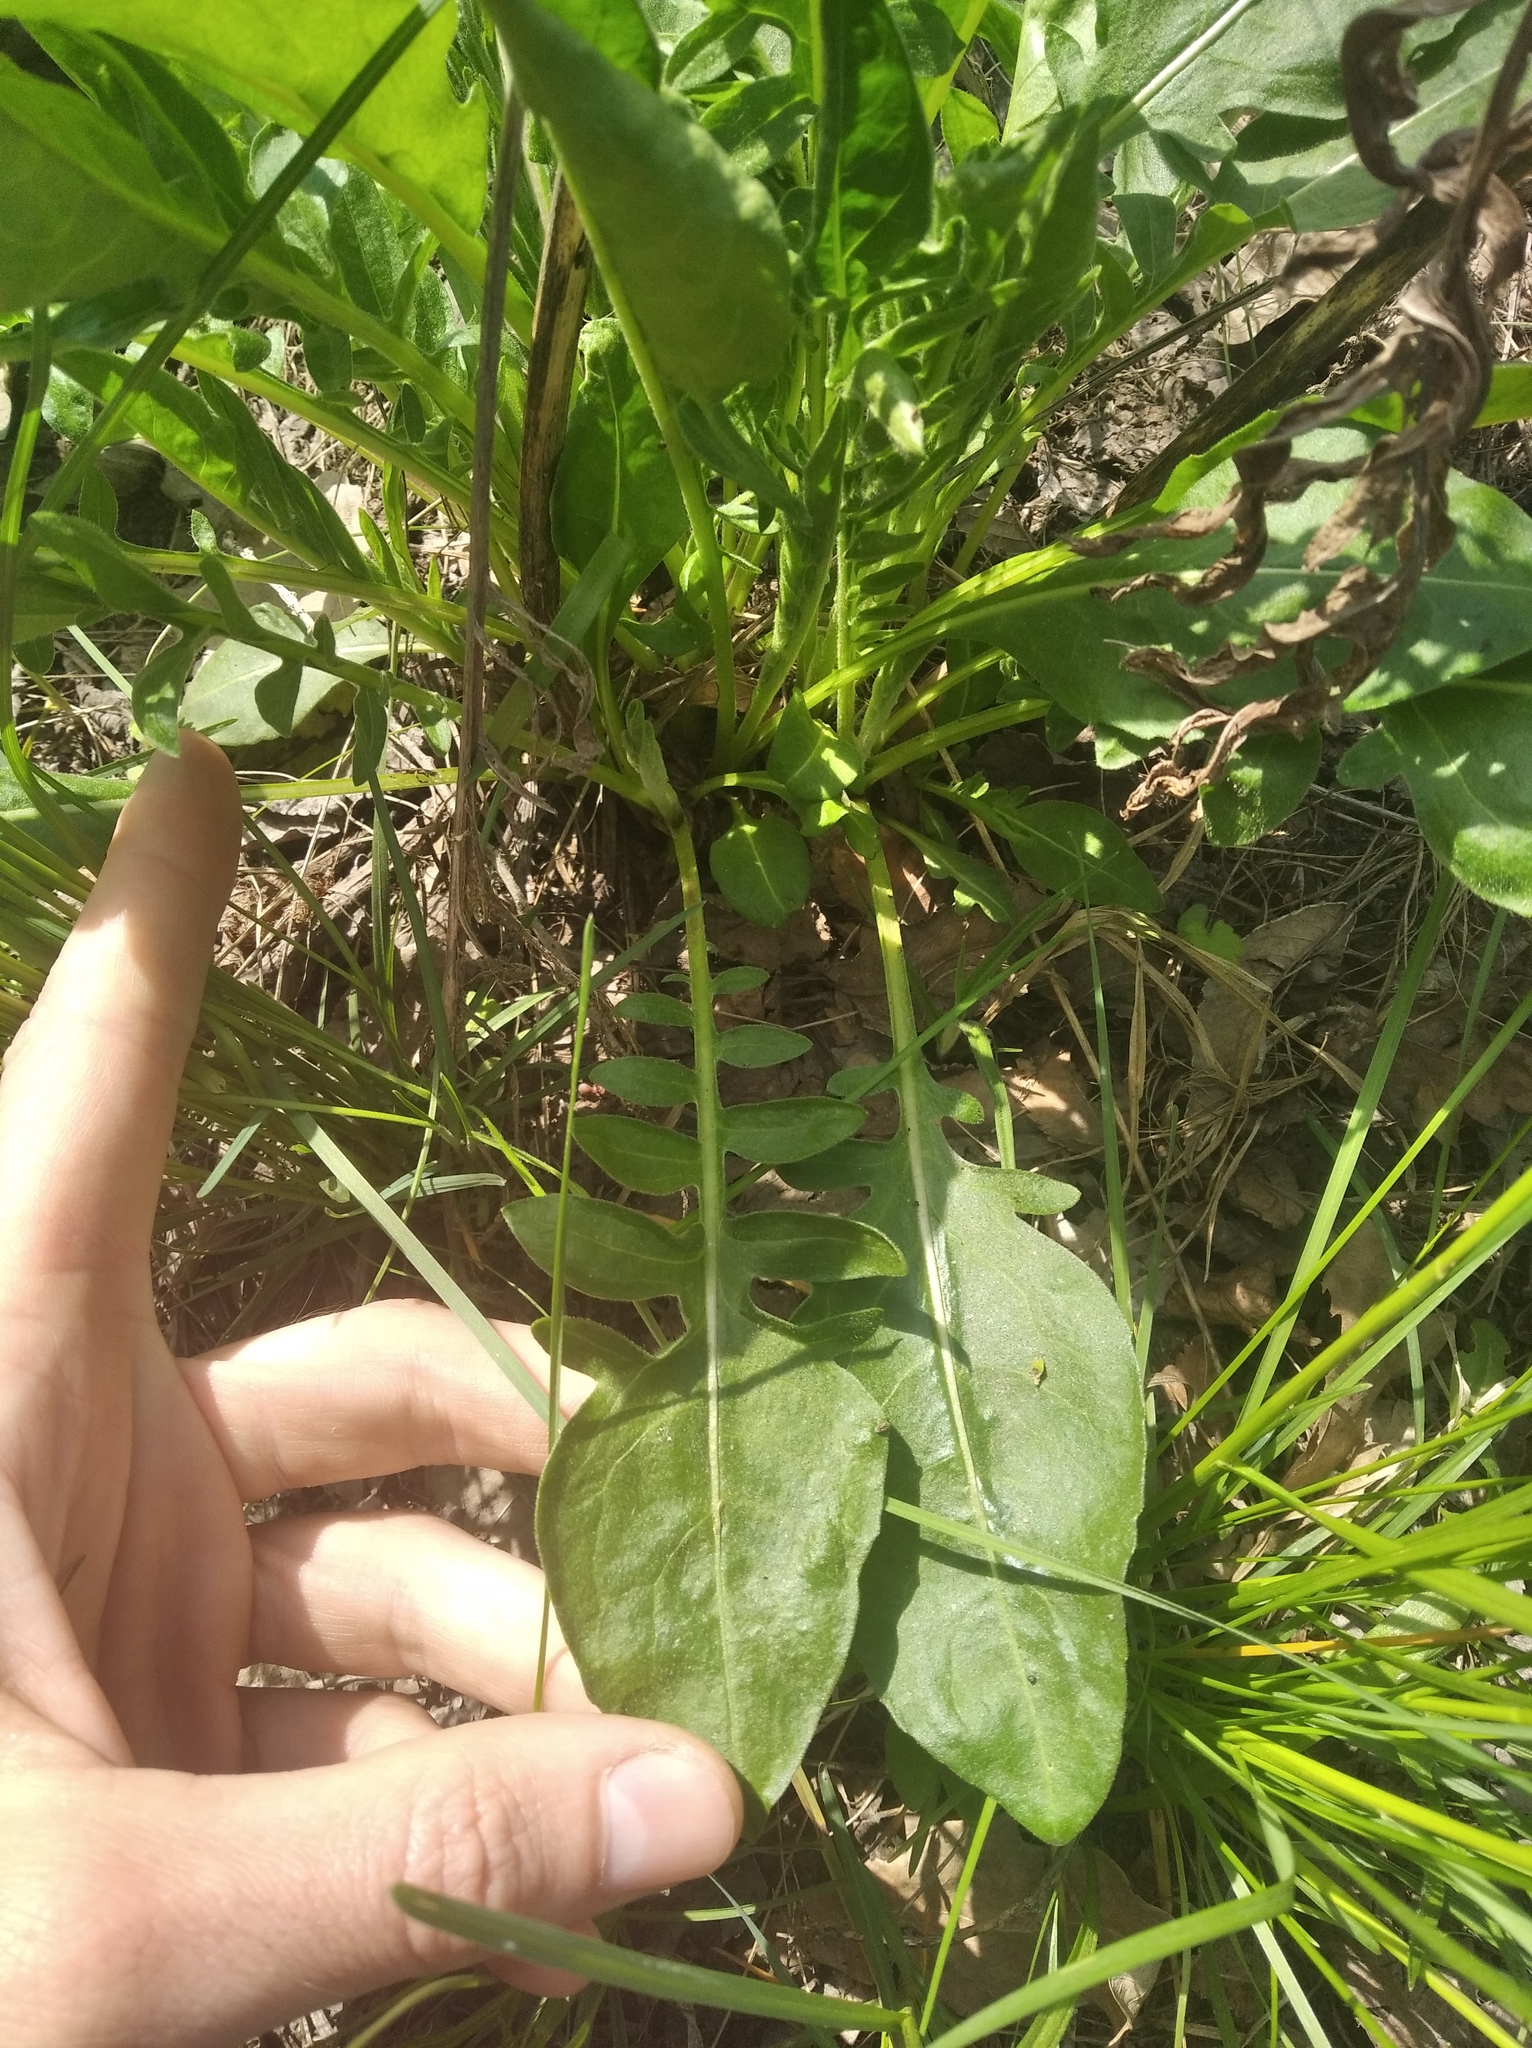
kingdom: Plantae
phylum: Tracheophyta
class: Magnoliopsida
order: Asterales
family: Asteraceae
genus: Centaurea
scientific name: Centaurea scabiosa
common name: Greater knapweed
